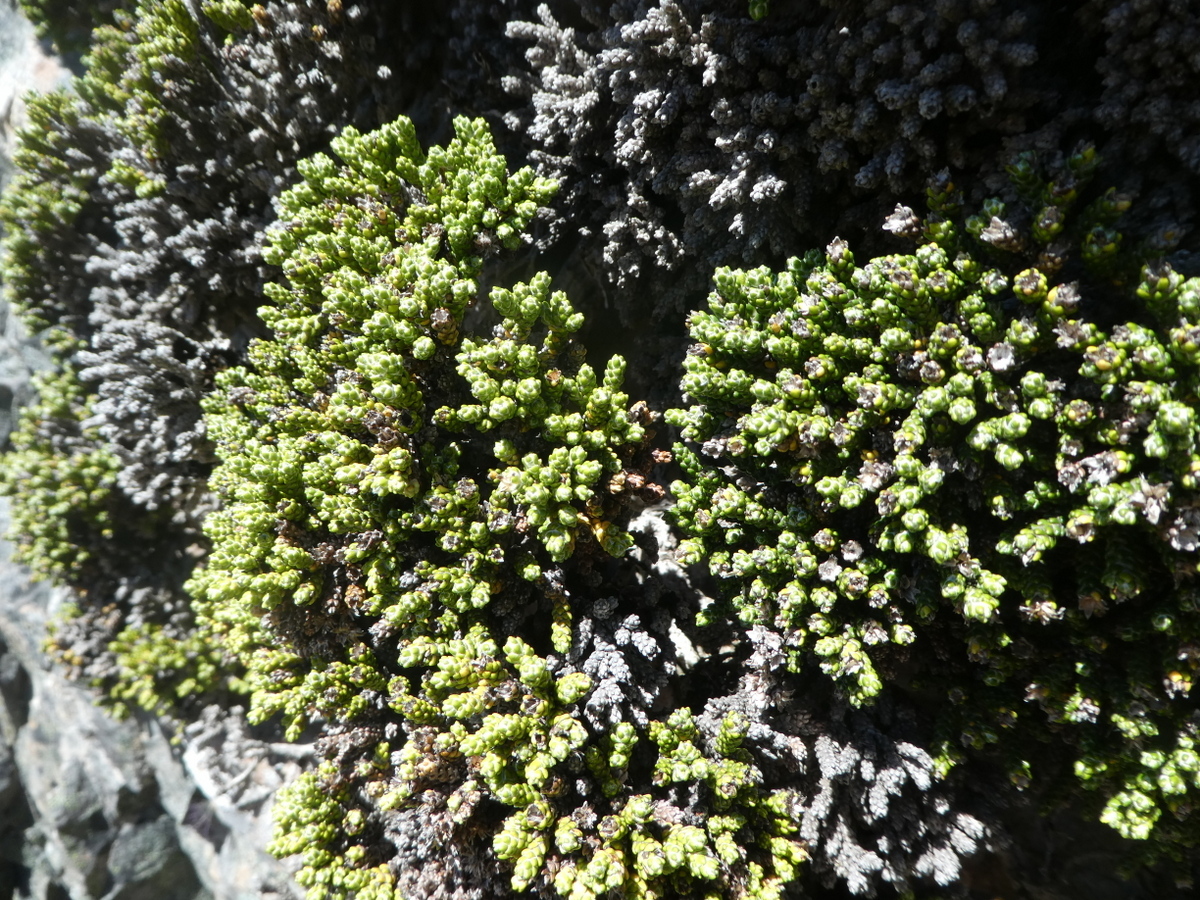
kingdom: Plantae
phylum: Tracheophyta
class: Magnoliopsida
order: Asterales
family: Asteraceae
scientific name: Asteraceae
